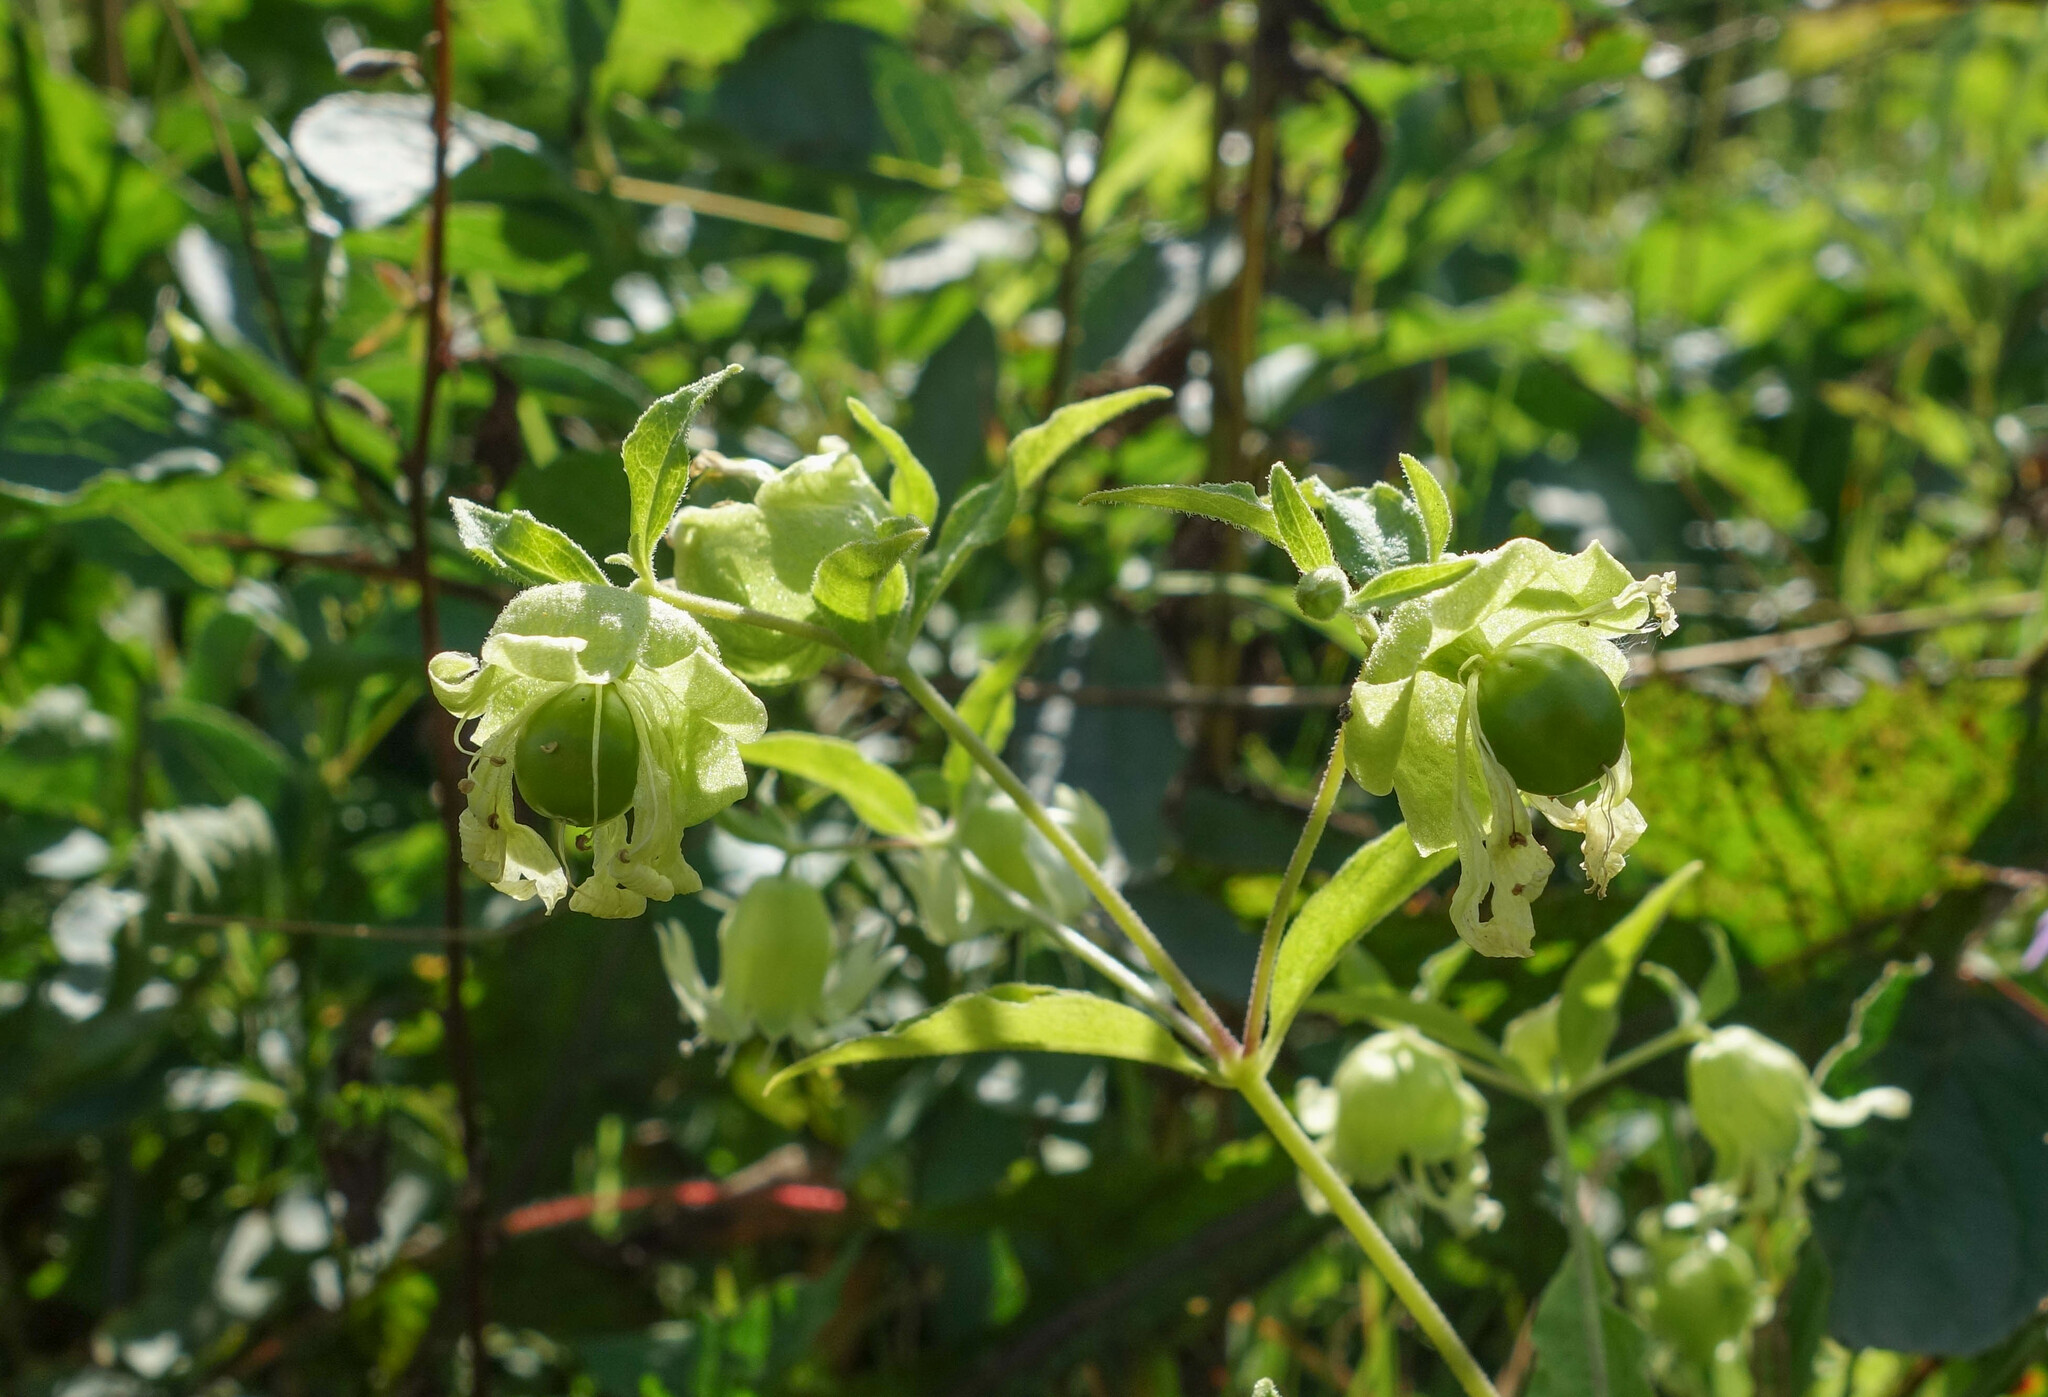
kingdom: Plantae
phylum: Tracheophyta
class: Magnoliopsida
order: Caryophyllales
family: Caryophyllaceae
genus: Silene
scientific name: Silene baccifera
